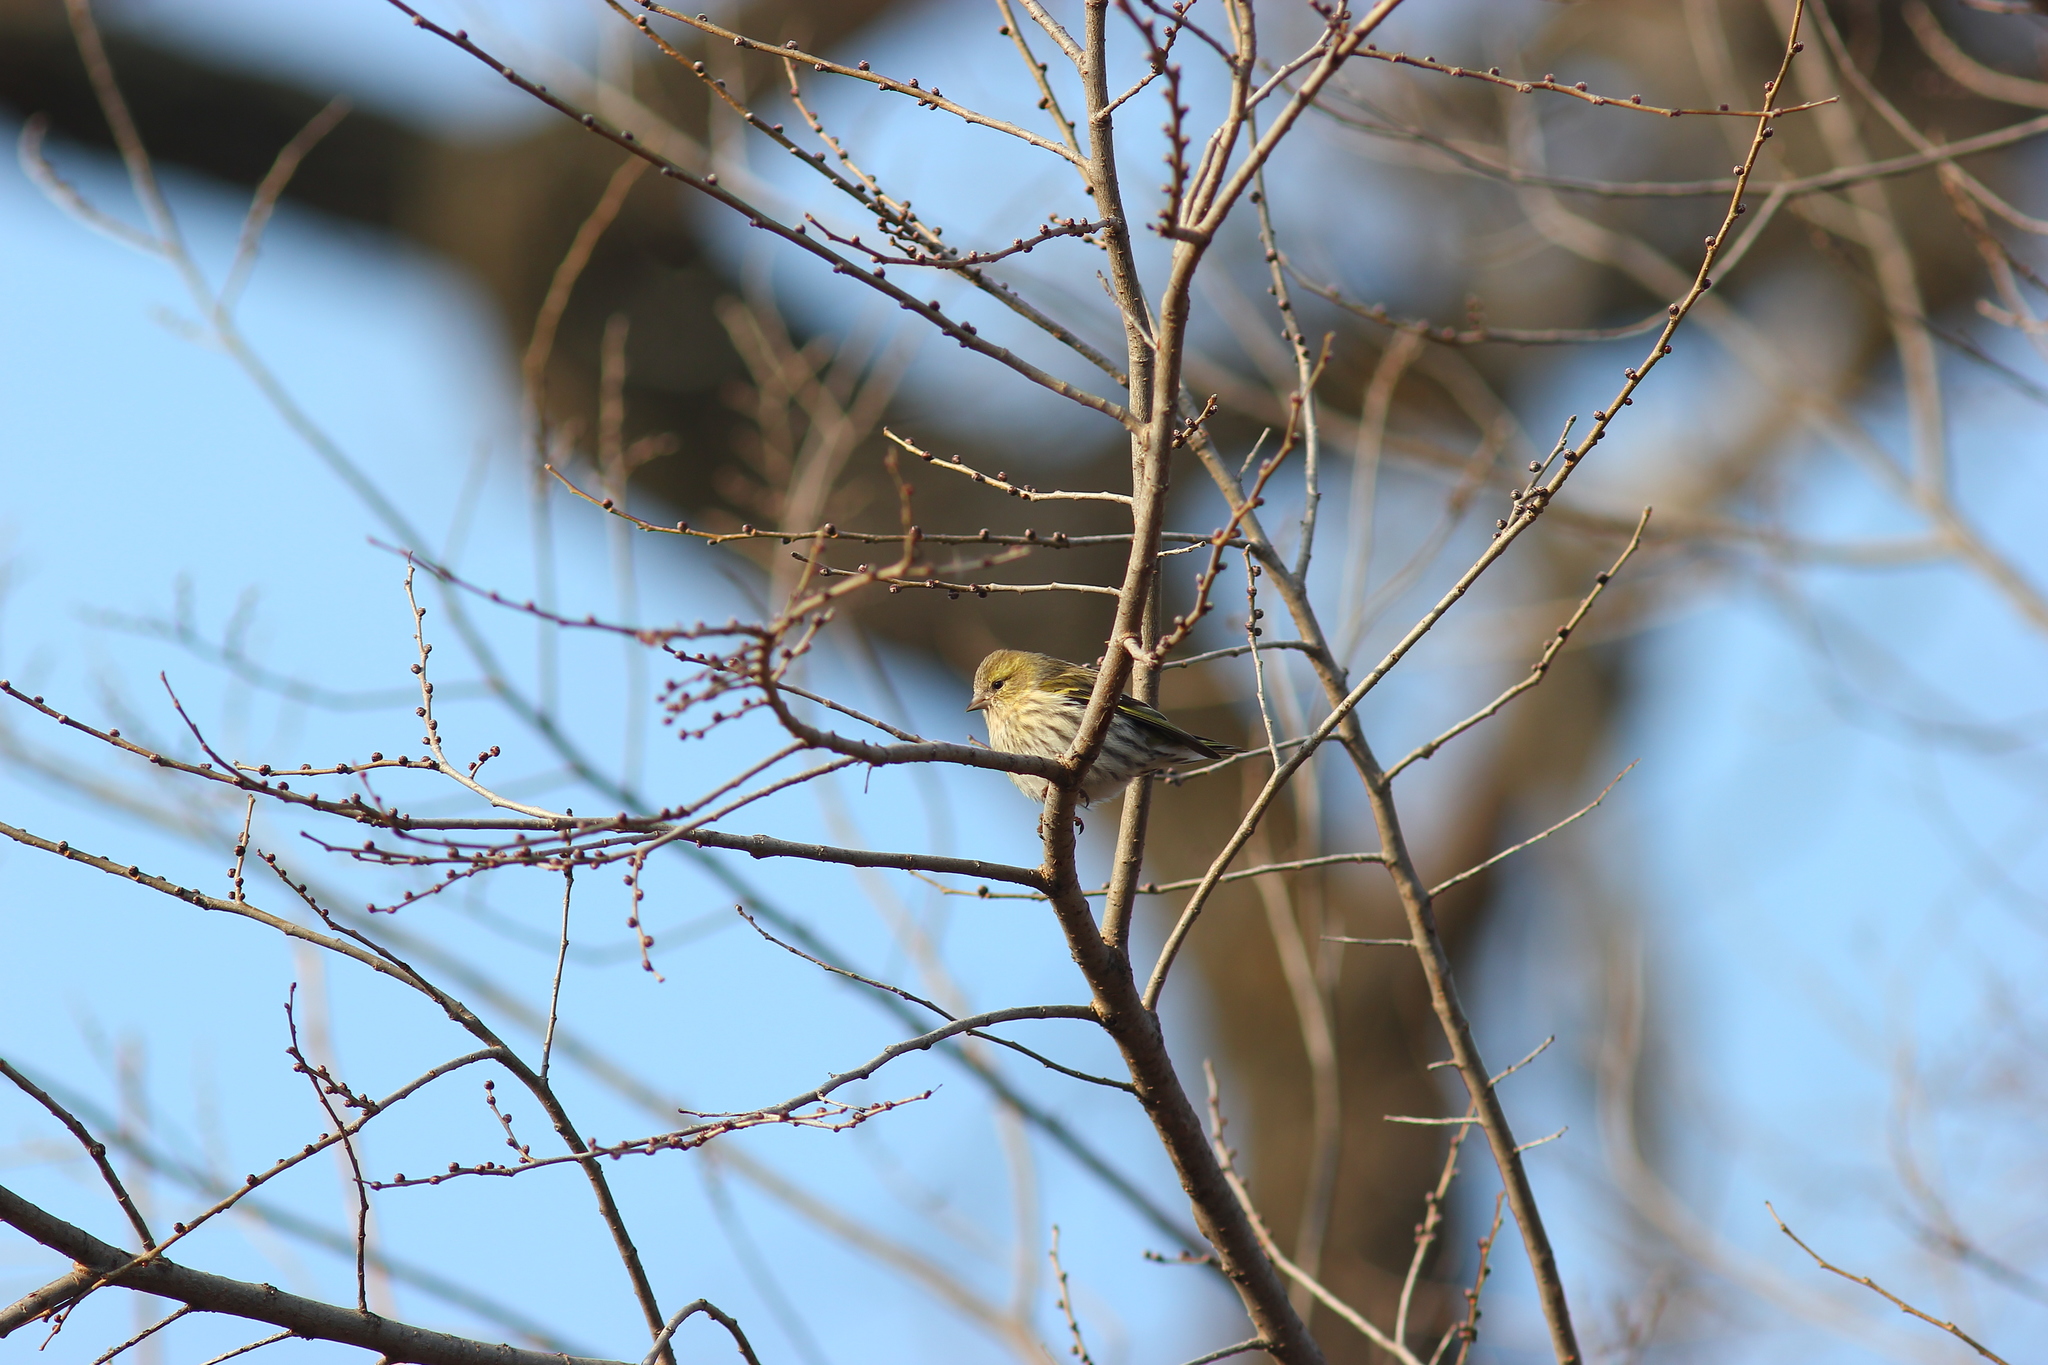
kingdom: Animalia
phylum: Chordata
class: Aves
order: Passeriformes
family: Fringillidae
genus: Spinus
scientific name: Spinus spinus
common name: Eurasian siskin
